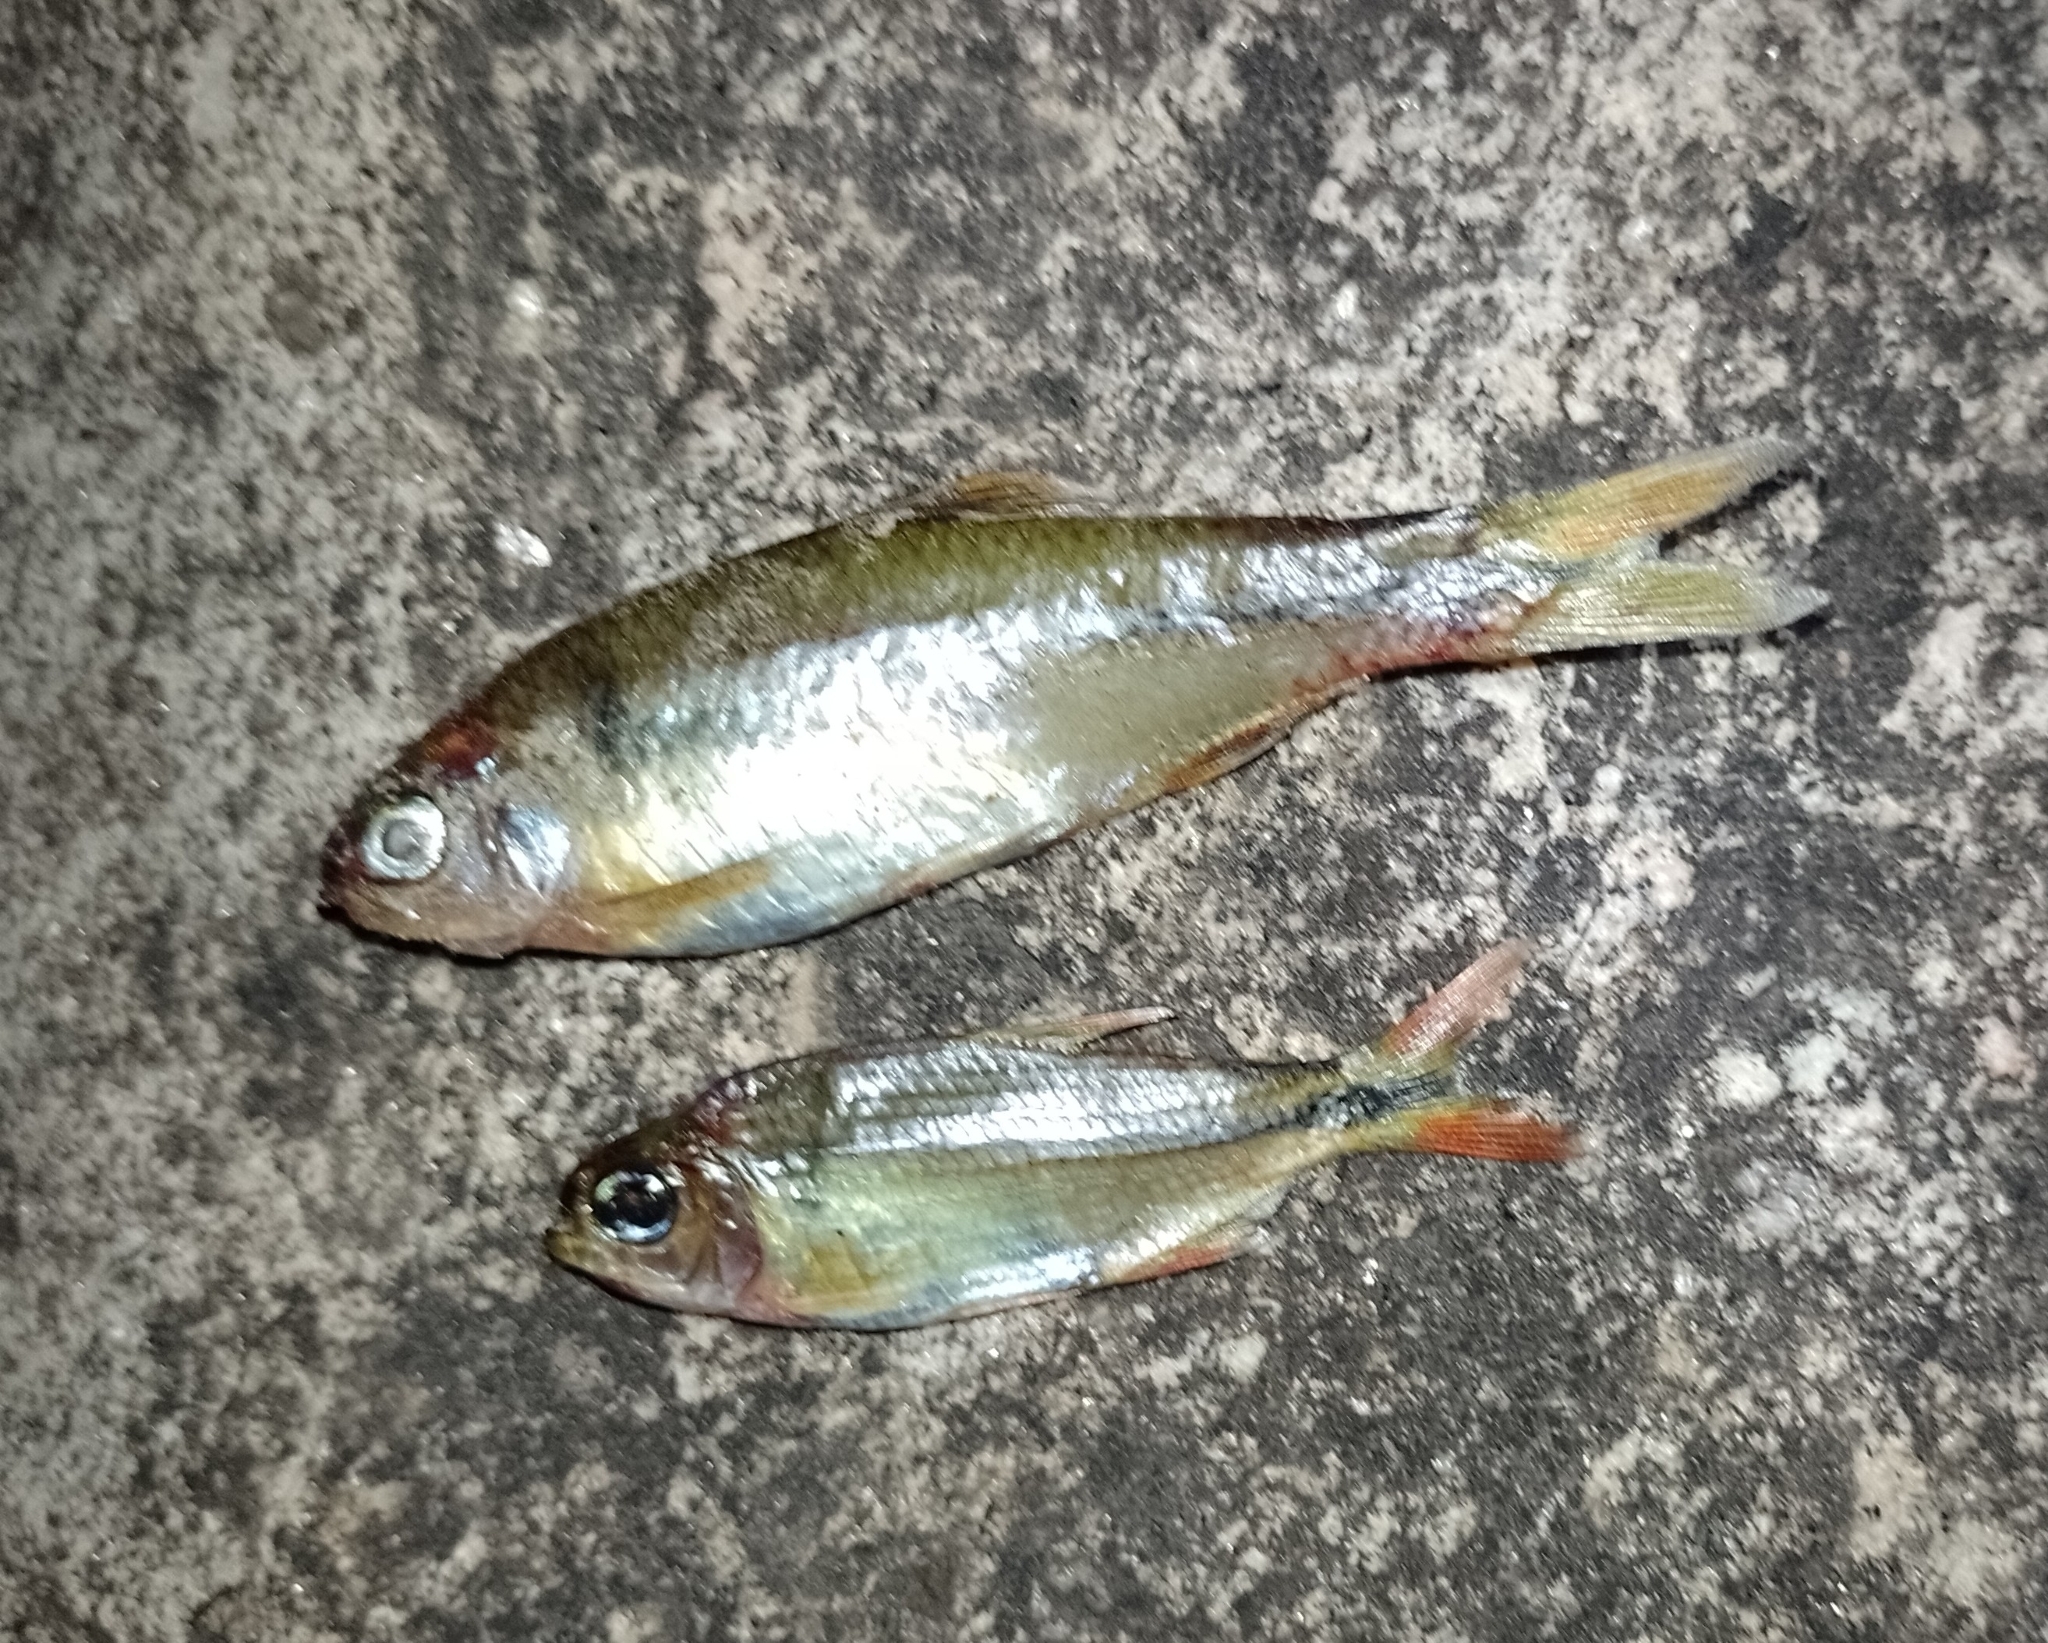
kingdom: Animalia
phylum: Chordata
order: Characiformes
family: Characidae
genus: Astyanax
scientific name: Astyanax eigenmanniorum
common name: Tetra
